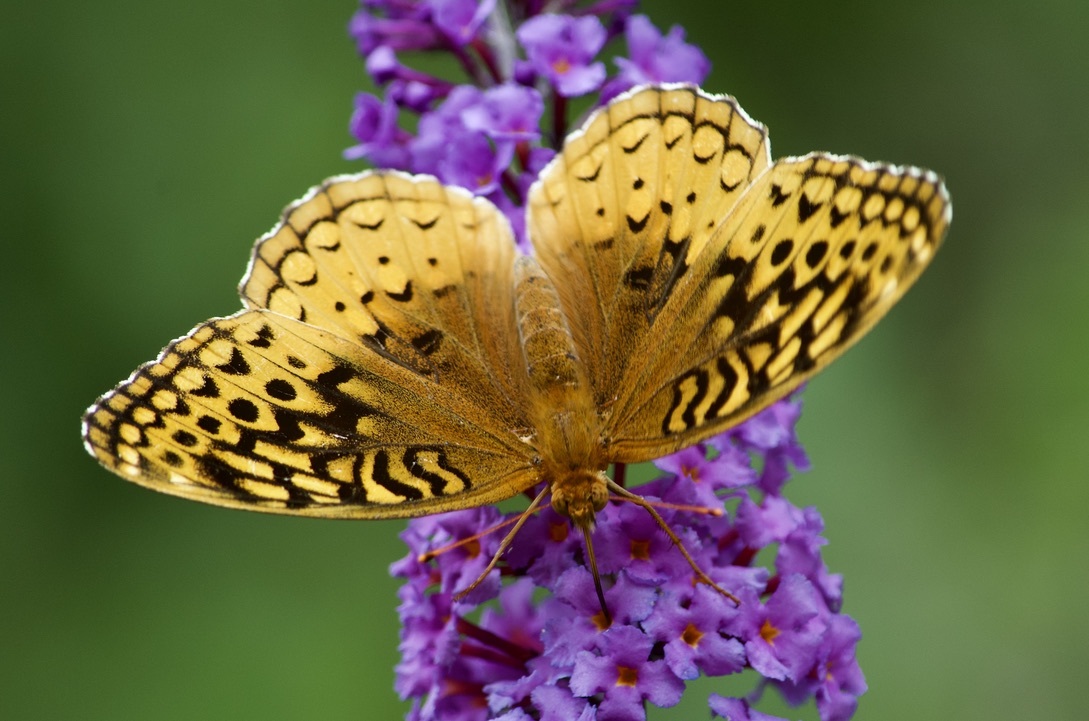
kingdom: Animalia
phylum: Arthropoda
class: Insecta
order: Lepidoptera
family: Nymphalidae
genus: Speyeria
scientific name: Speyeria cybele
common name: Great spangled fritillary
